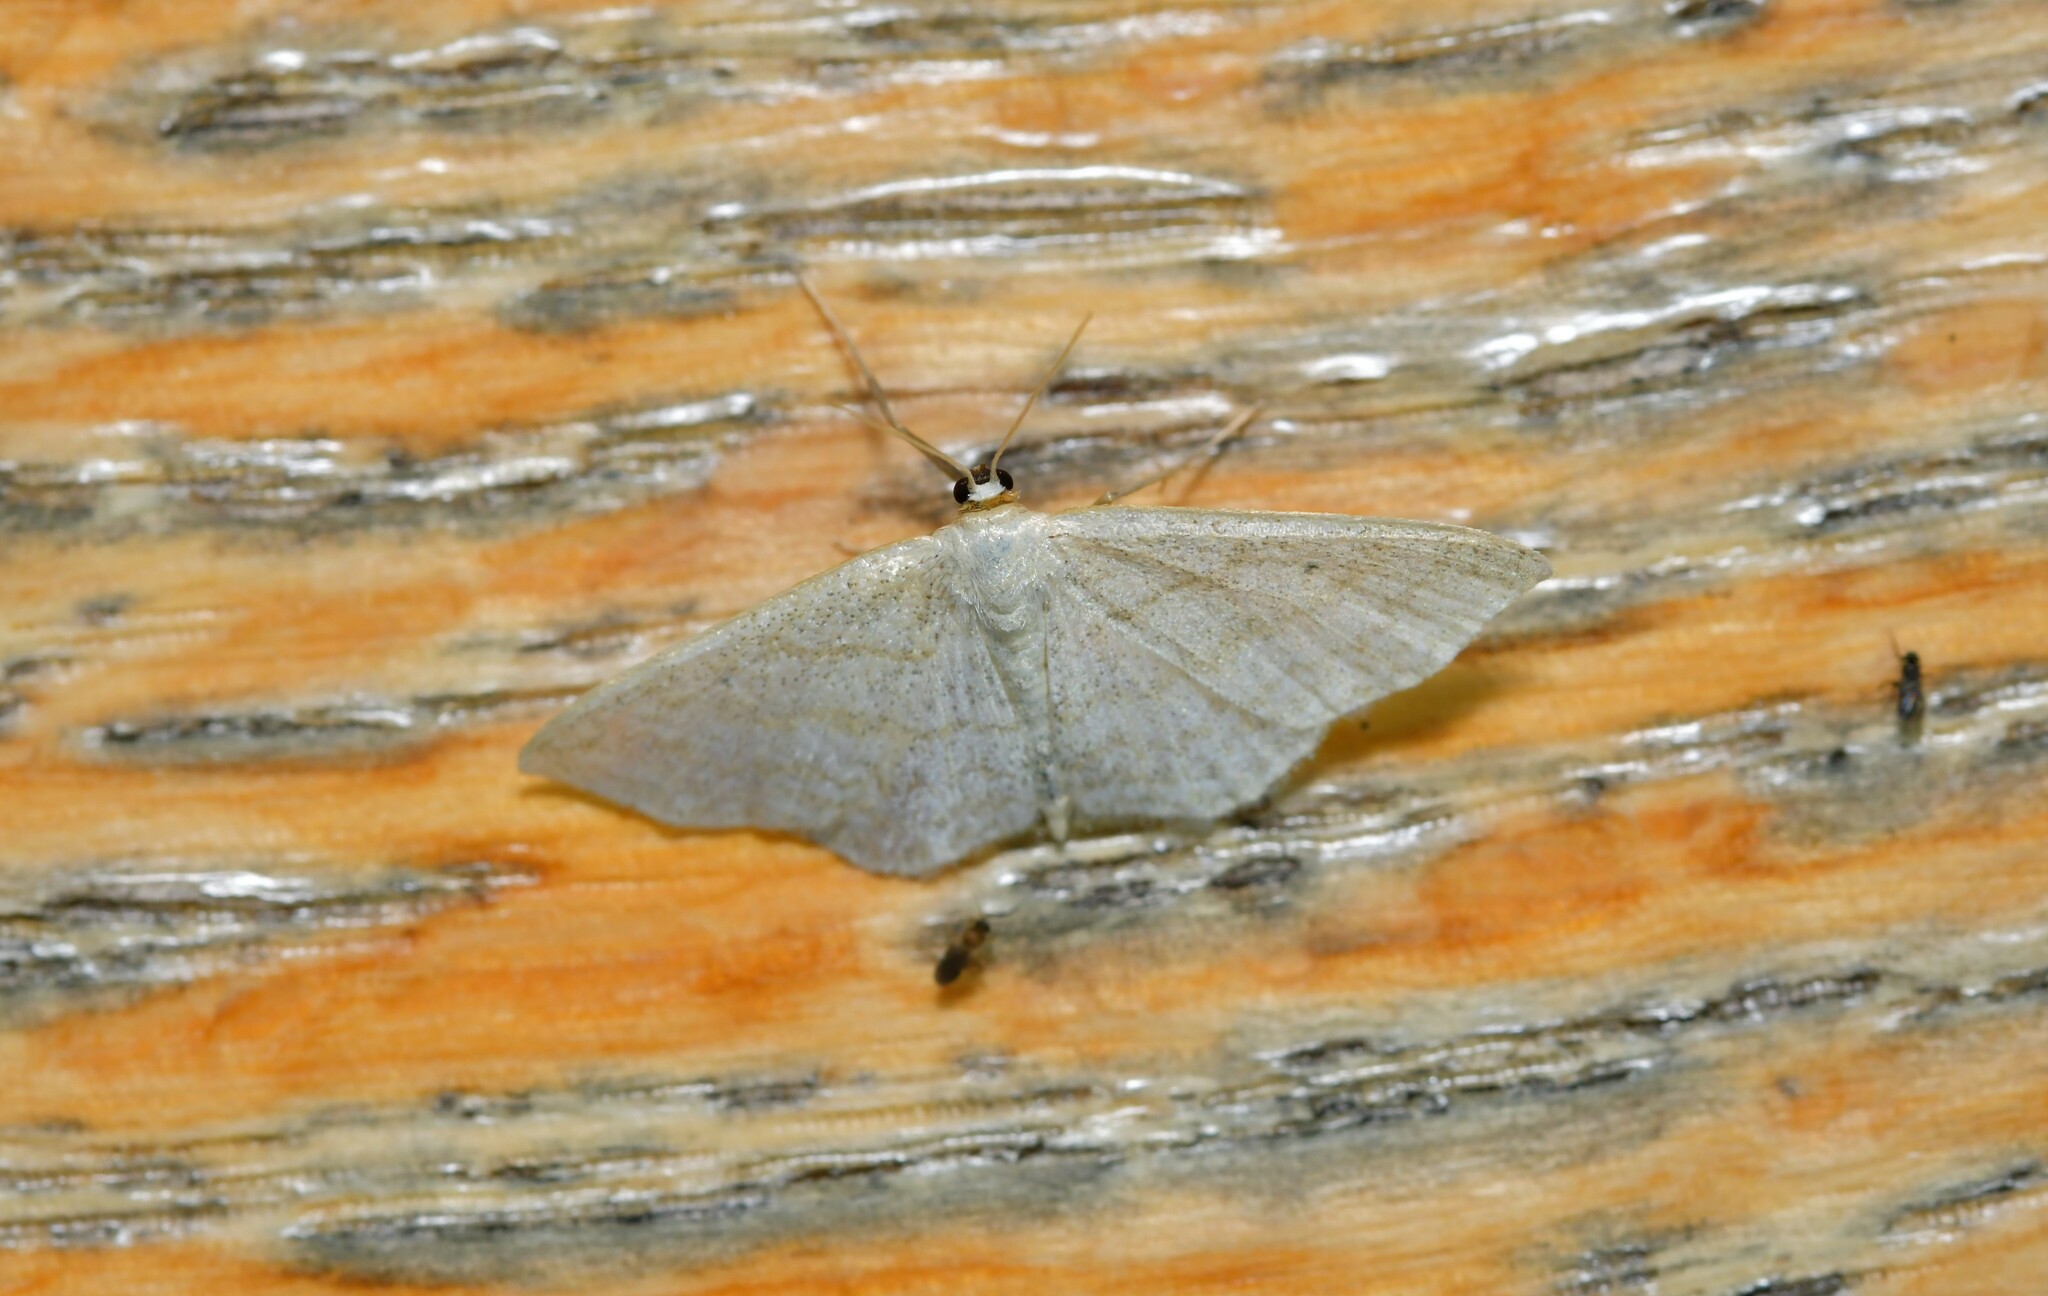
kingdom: Animalia
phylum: Arthropoda
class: Insecta
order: Lepidoptera
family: Geometridae
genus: Idaea
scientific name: Idaea subsericeata
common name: Satin wave
